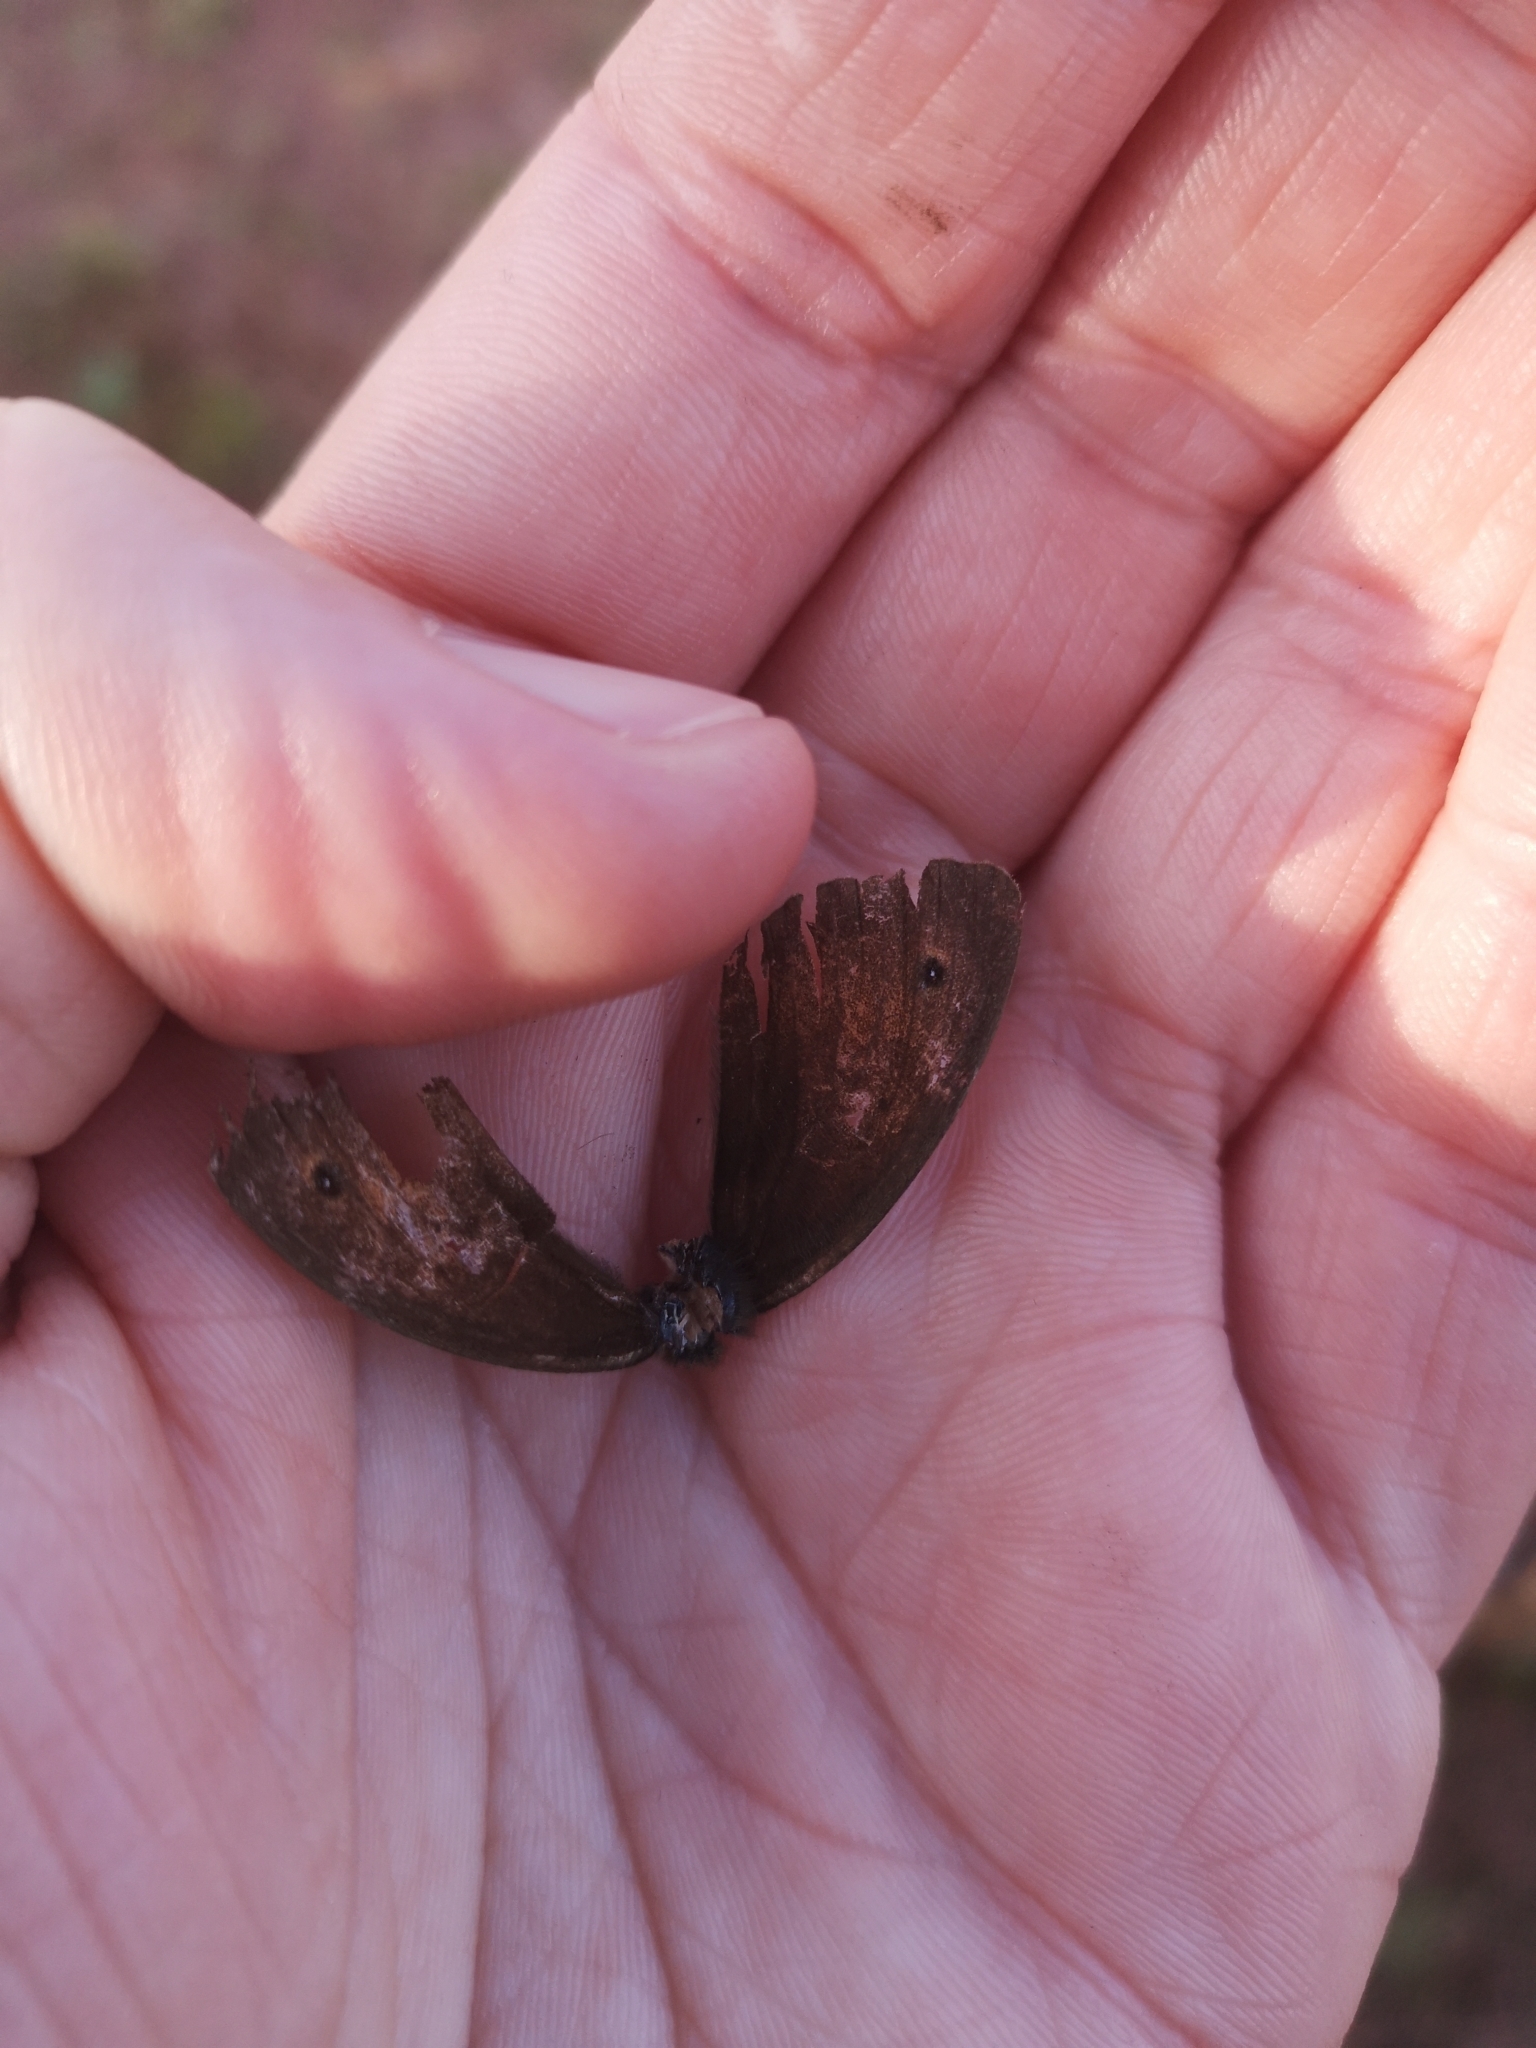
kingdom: Animalia
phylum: Arthropoda
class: Insecta
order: Lepidoptera
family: Nymphalidae
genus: Maniola
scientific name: Maniola jurtina
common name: Meadow brown
